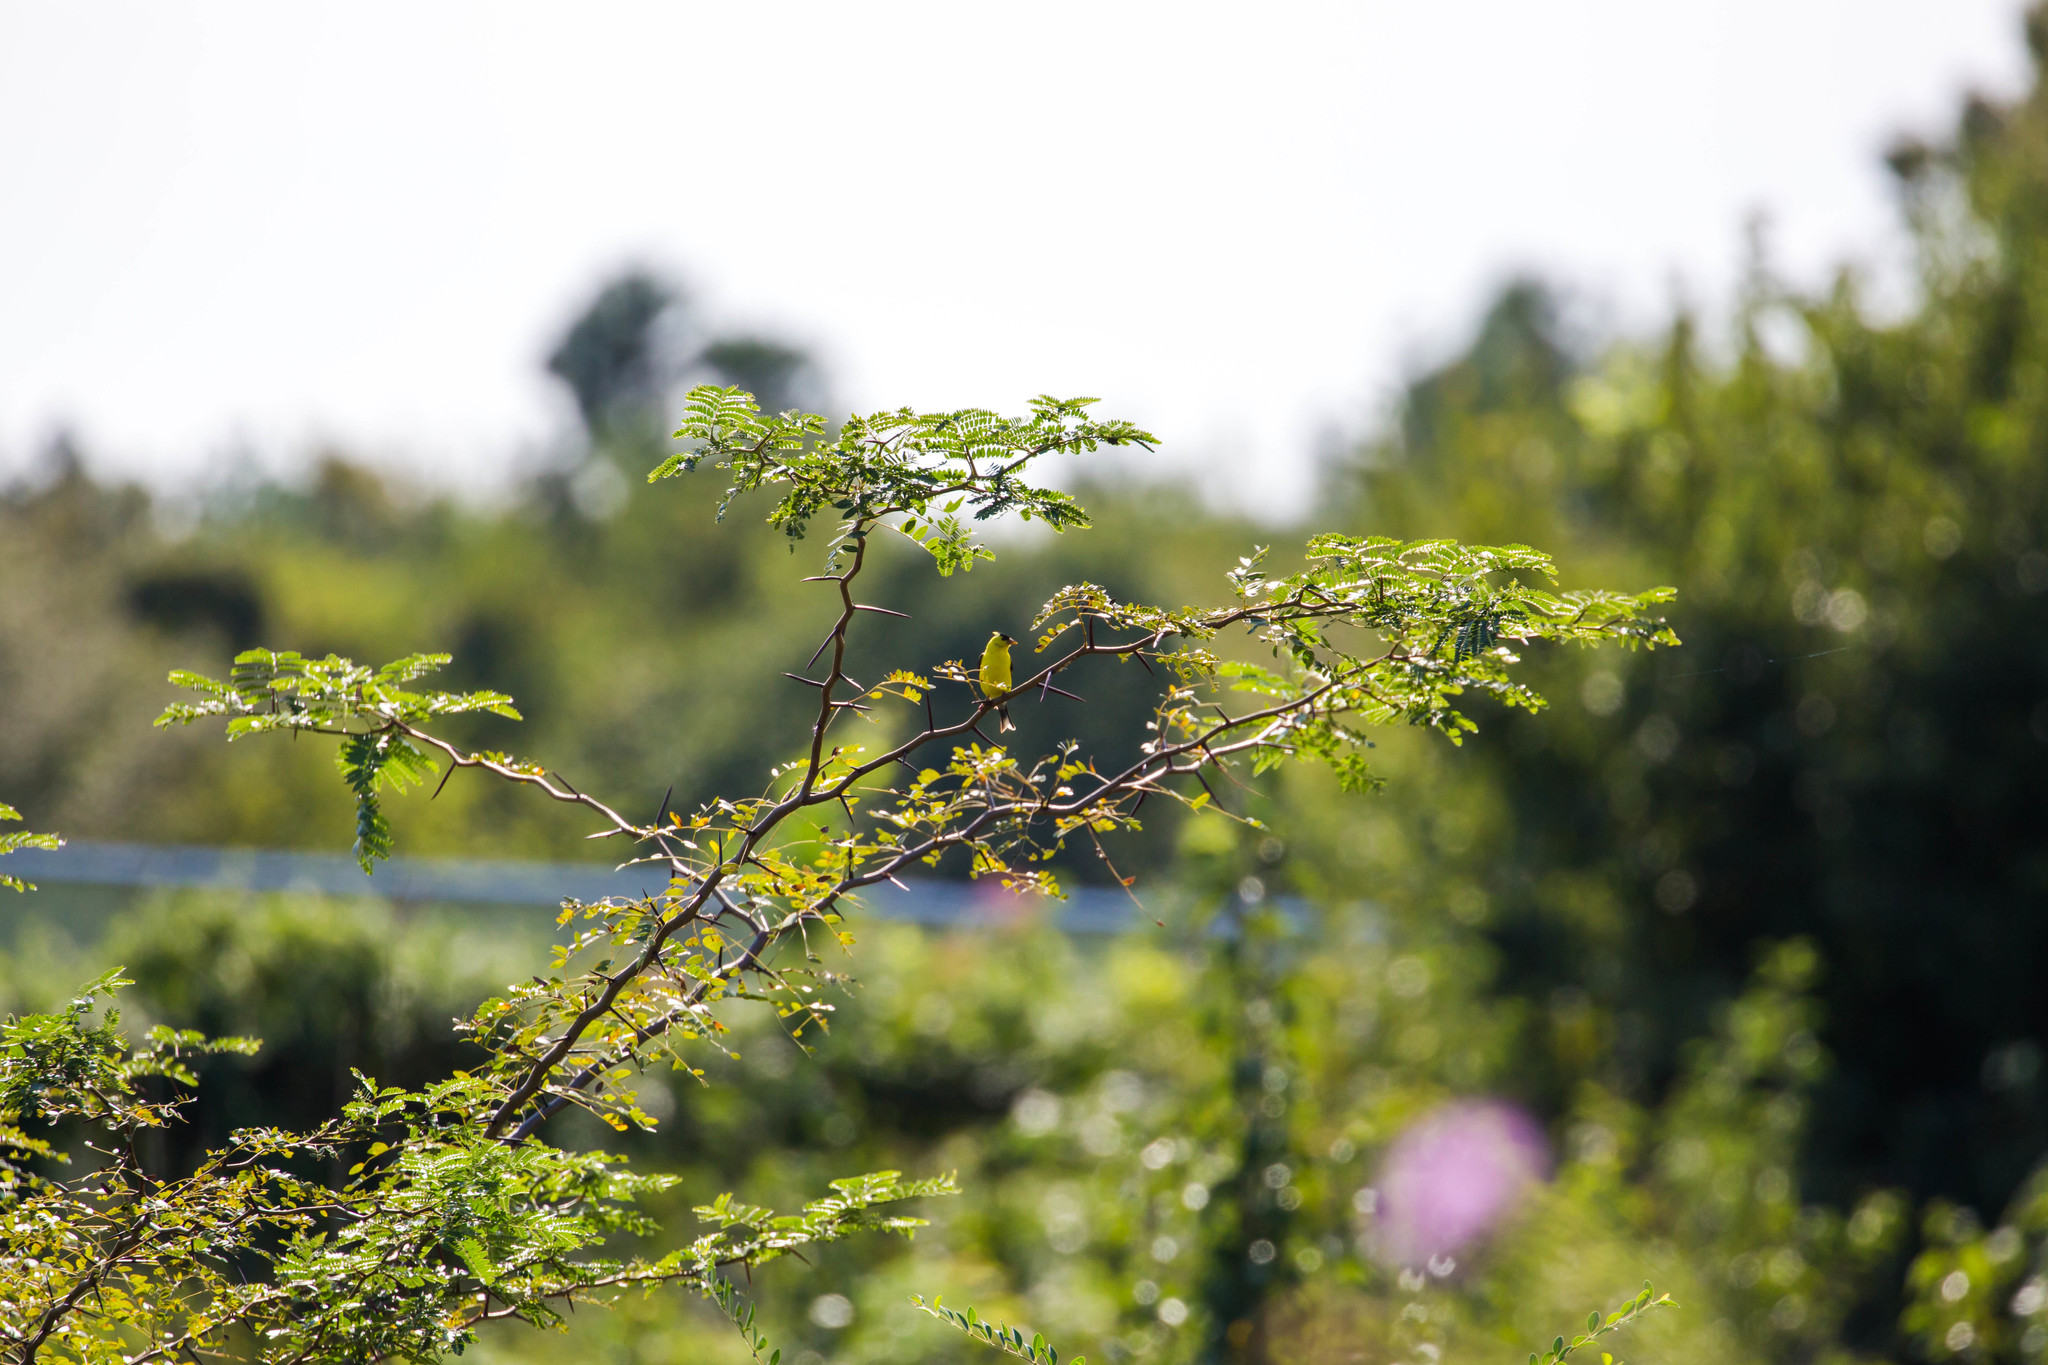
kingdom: Animalia
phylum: Chordata
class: Aves
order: Passeriformes
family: Fringillidae
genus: Spinus
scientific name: Spinus tristis
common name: American goldfinch
